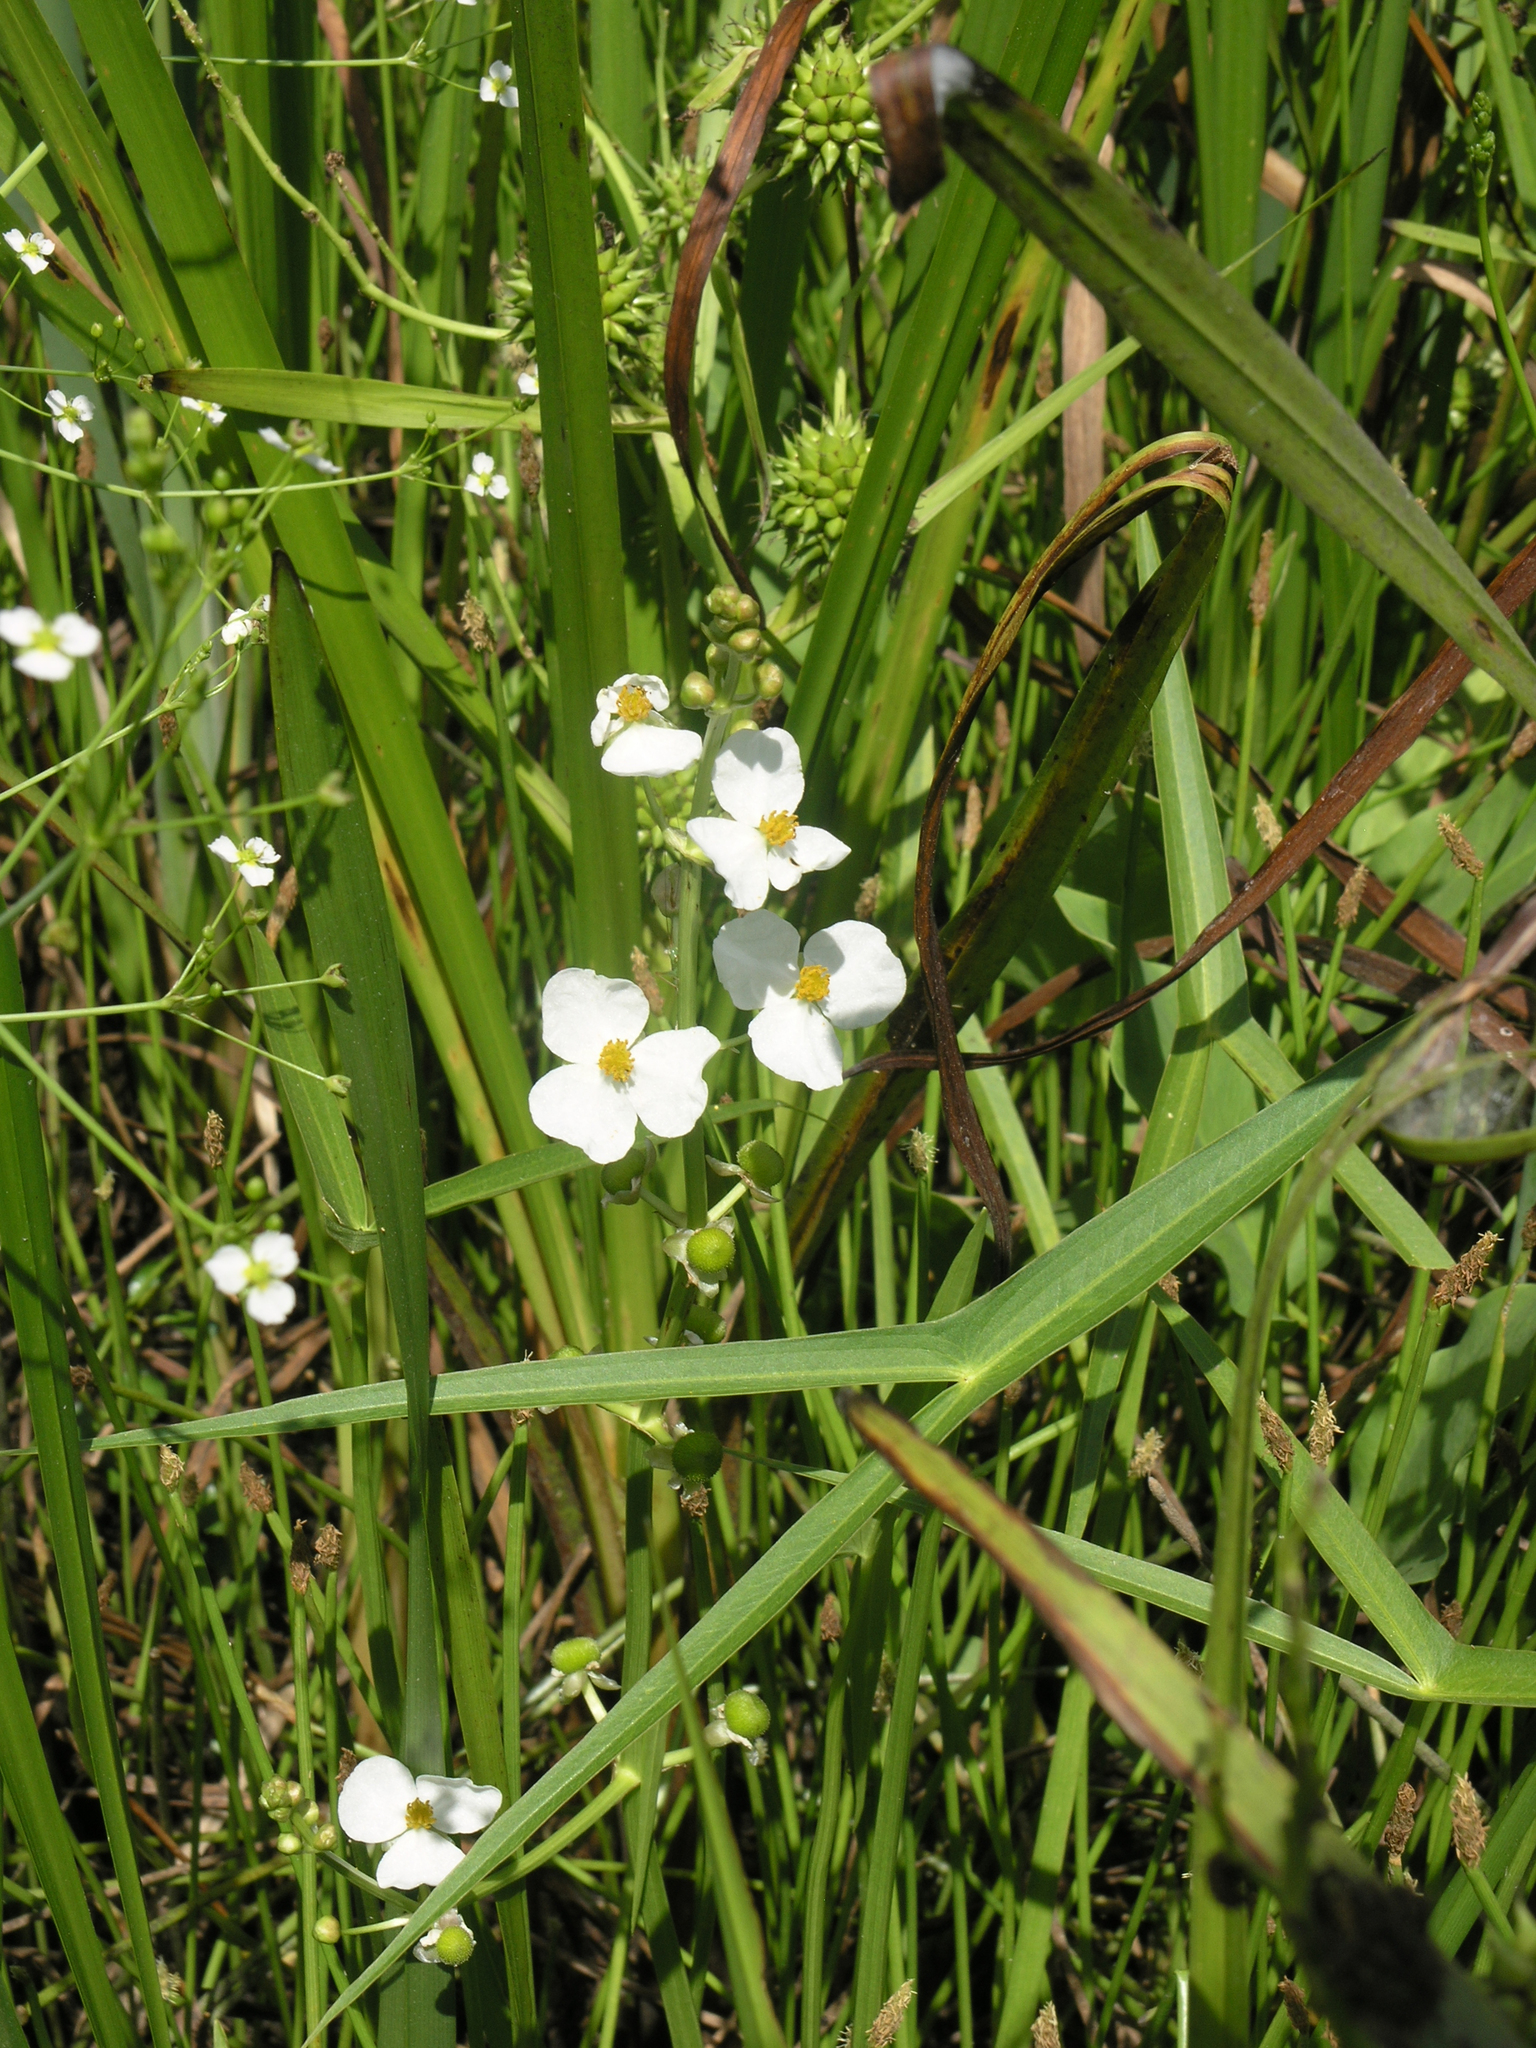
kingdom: Plantae
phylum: Tracheophyta
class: Liliopsida
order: Alismatales
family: Alismataceae
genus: Sagittaria
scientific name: Sagittaria trifolia
